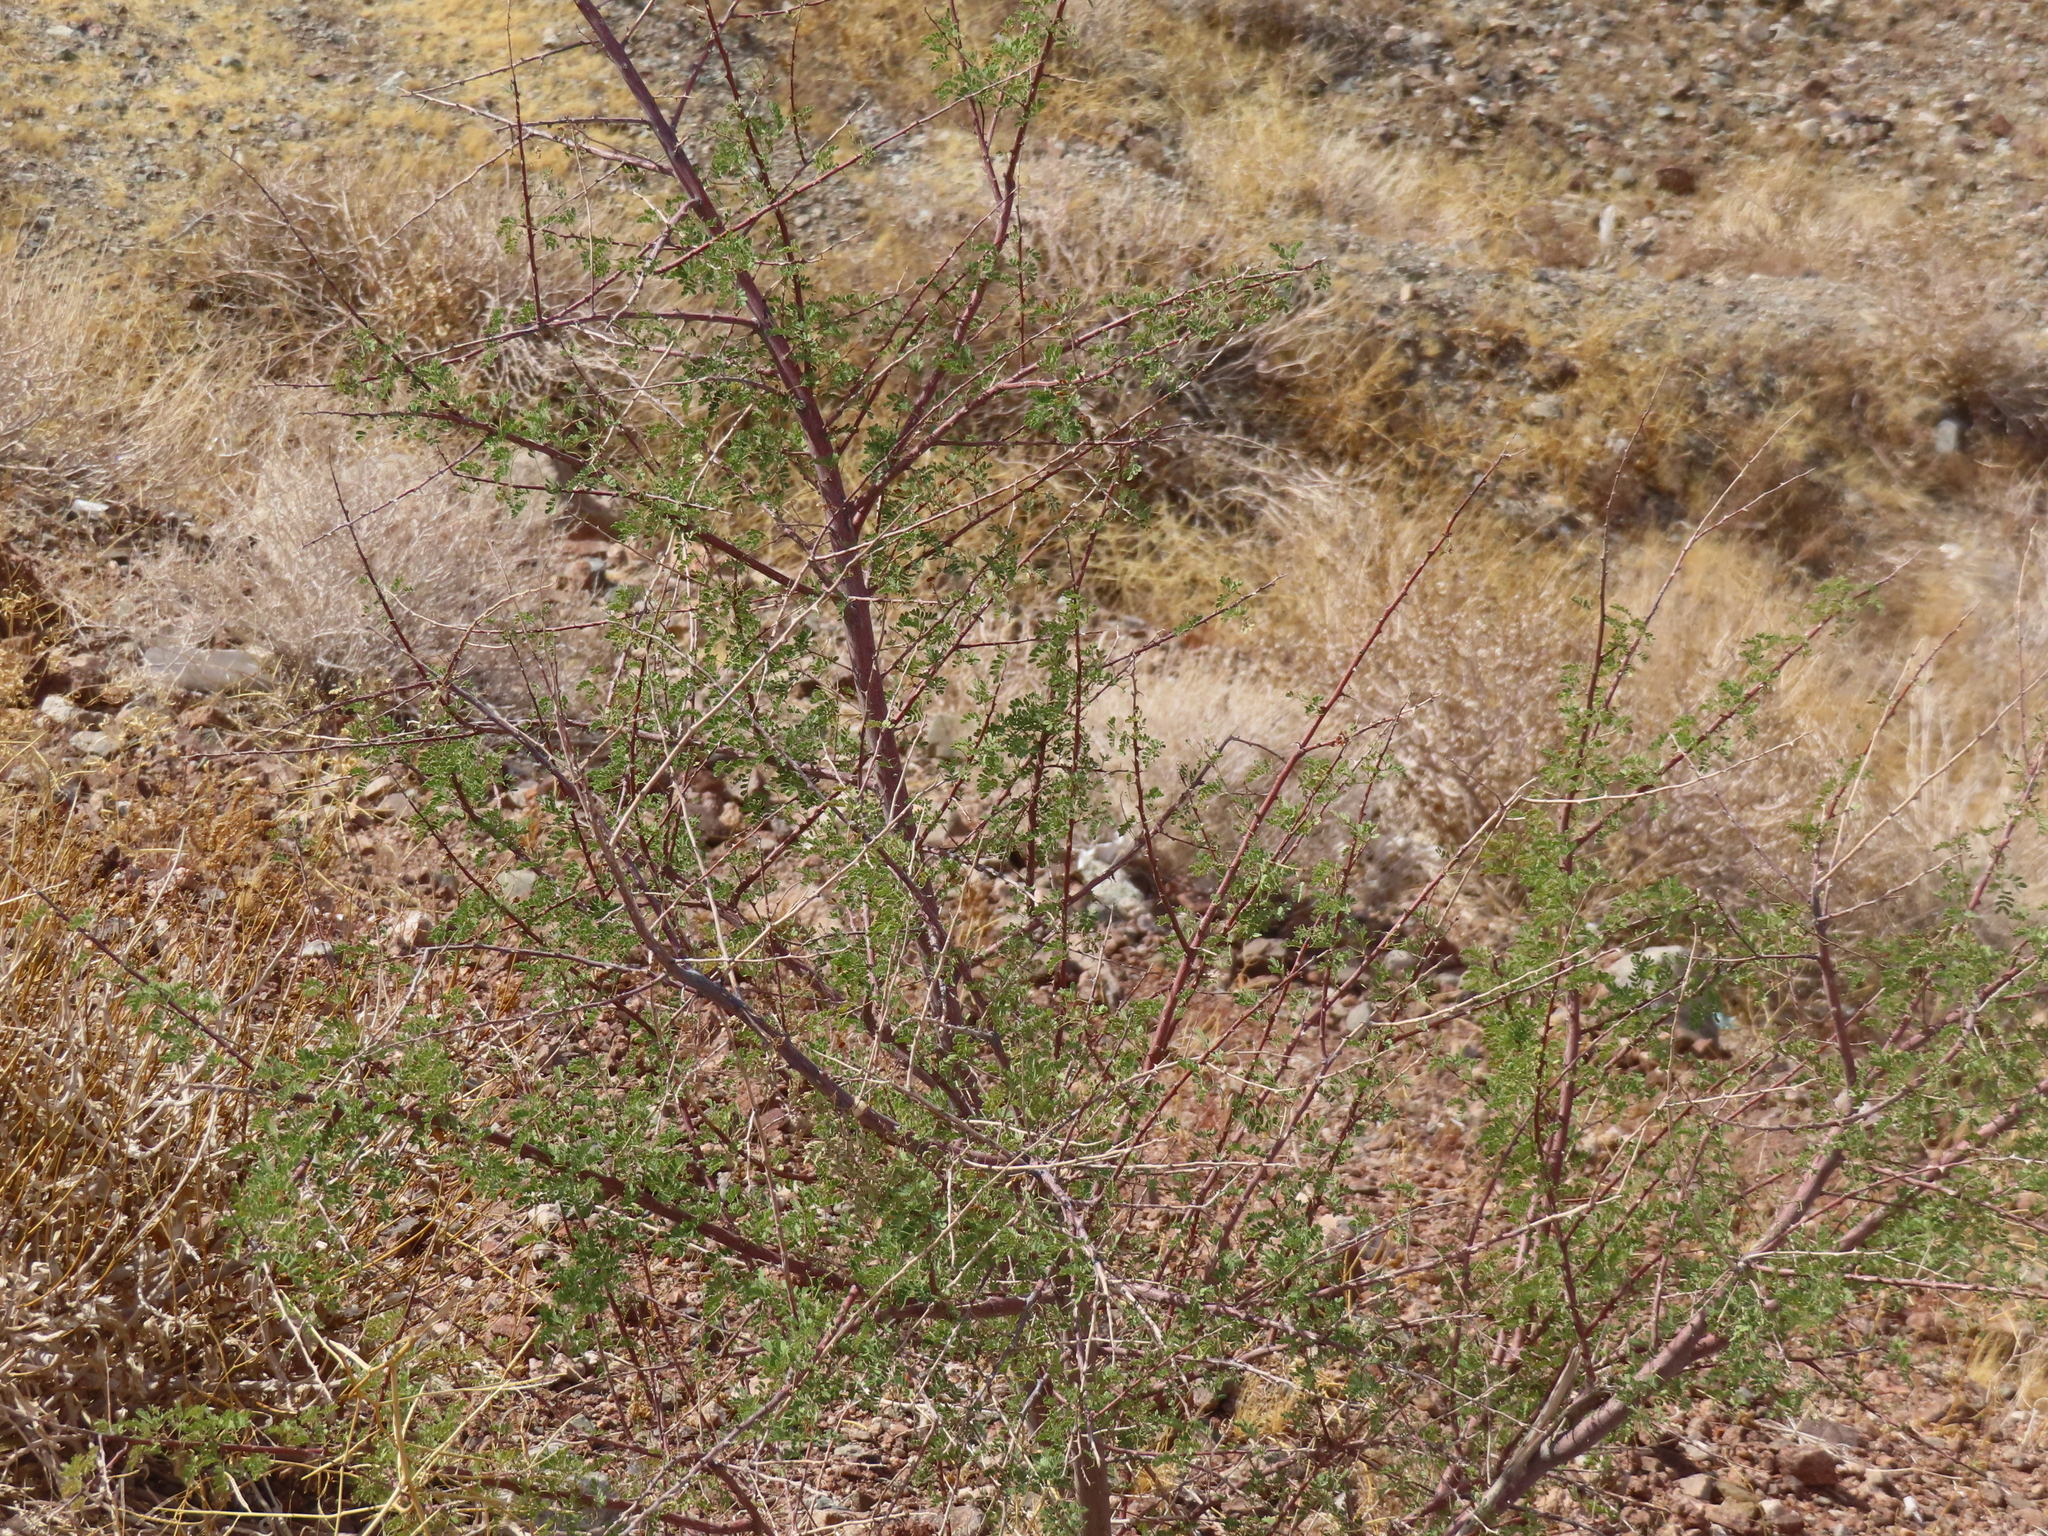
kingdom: Plantae
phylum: Tracheophyta
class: Magnoliopsida
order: Fabales
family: Fabaceae
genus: Senegalia
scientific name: Senegalia greggii
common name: Texas-mimosa
